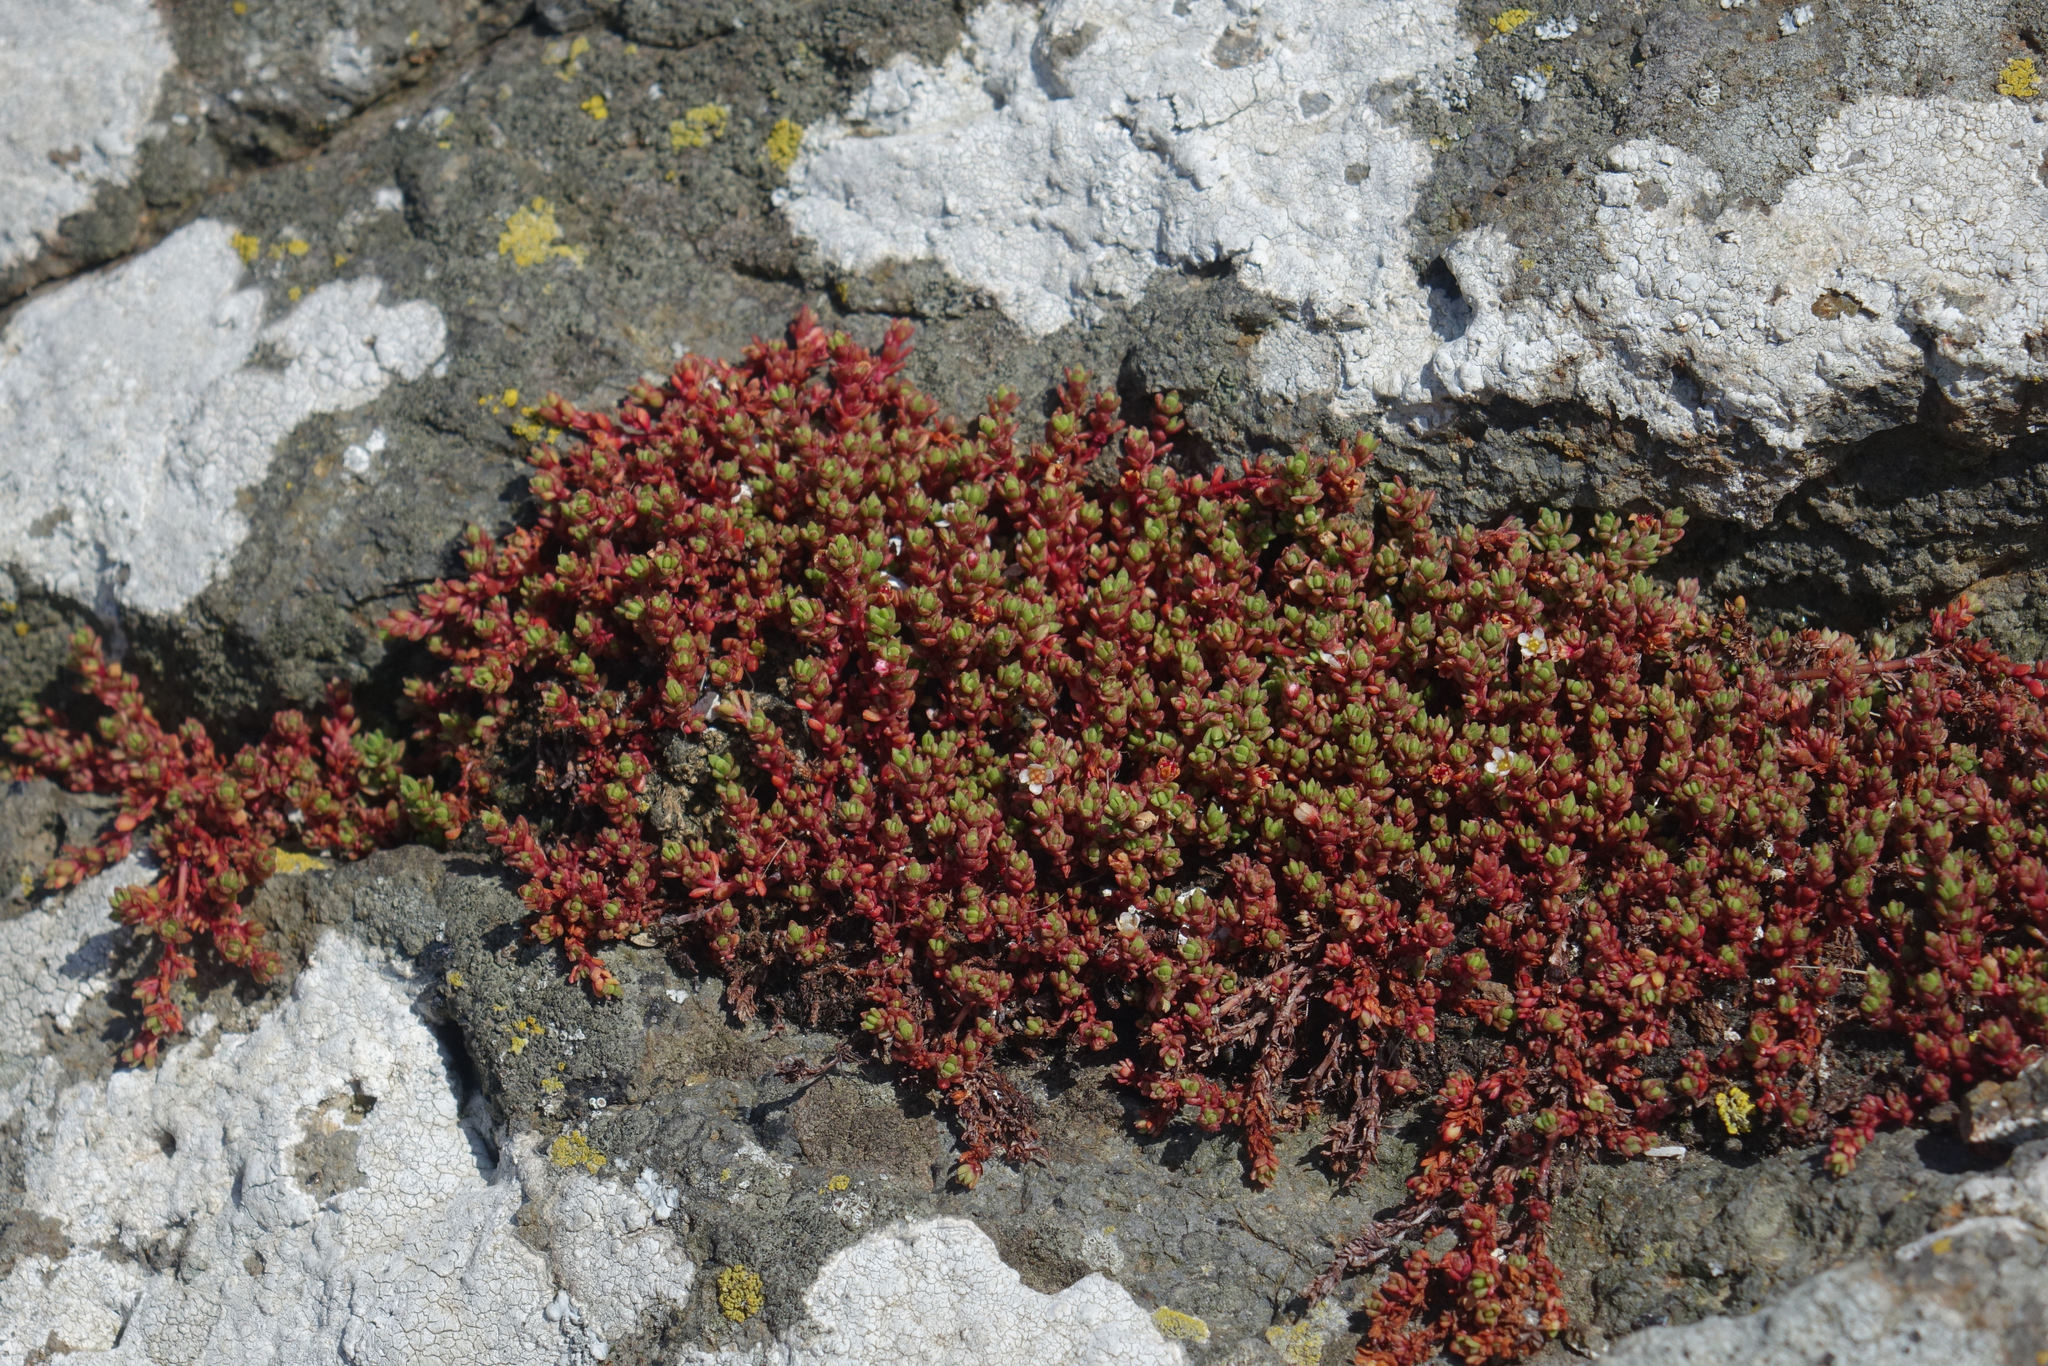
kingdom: Plantae
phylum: Tracheophyta
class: Magnoliopsida
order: Saxifragales
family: Crassulaceae
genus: Crassula
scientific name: Crassula moschata
